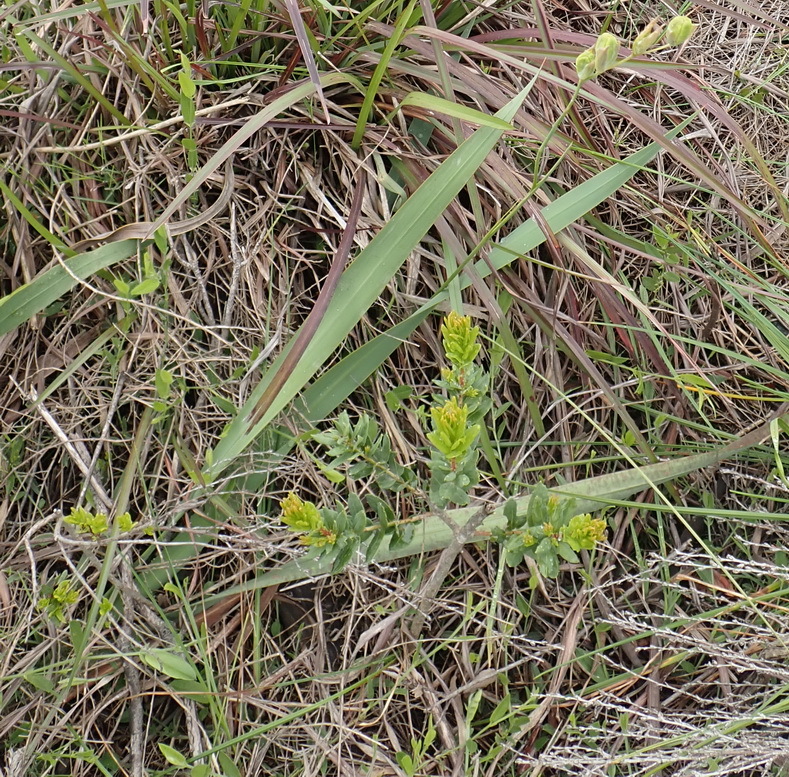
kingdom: Plantae
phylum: Tracheophyta
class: Liliopsida
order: Asparagales
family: Iridaceae
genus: Gladiolus
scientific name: Gladiolus rogersii
